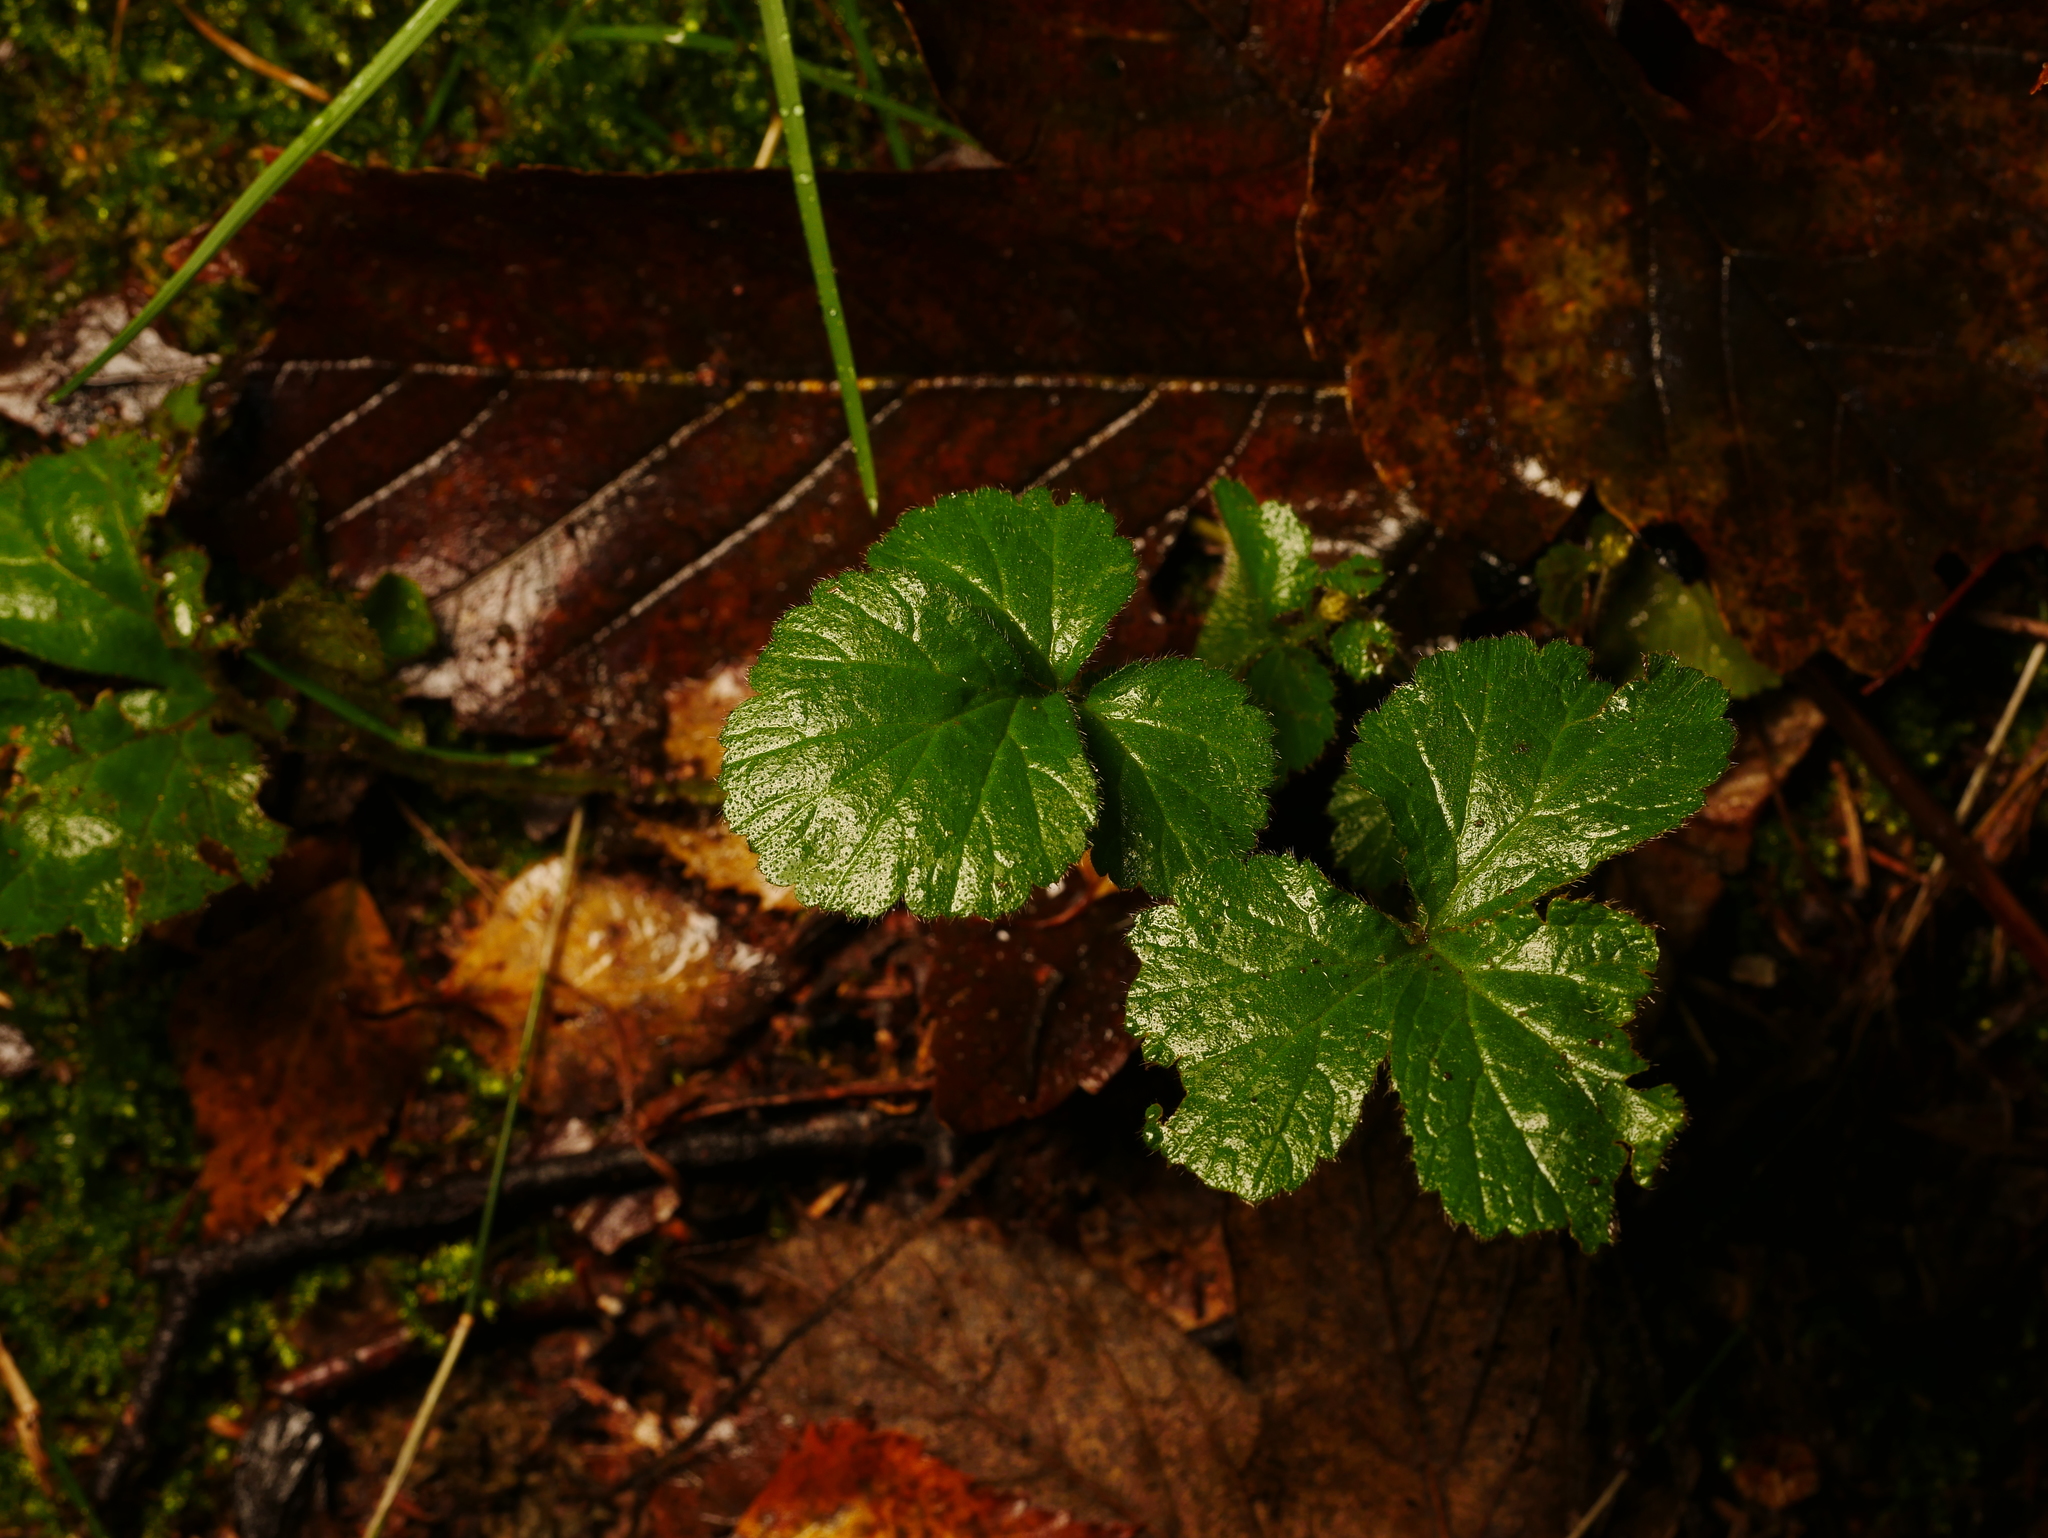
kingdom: Plantae
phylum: Tracheophyta
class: Magnoliopsida
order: Rosales
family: Rosaceae
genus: Geum
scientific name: Geum urbanum
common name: Wood avens
